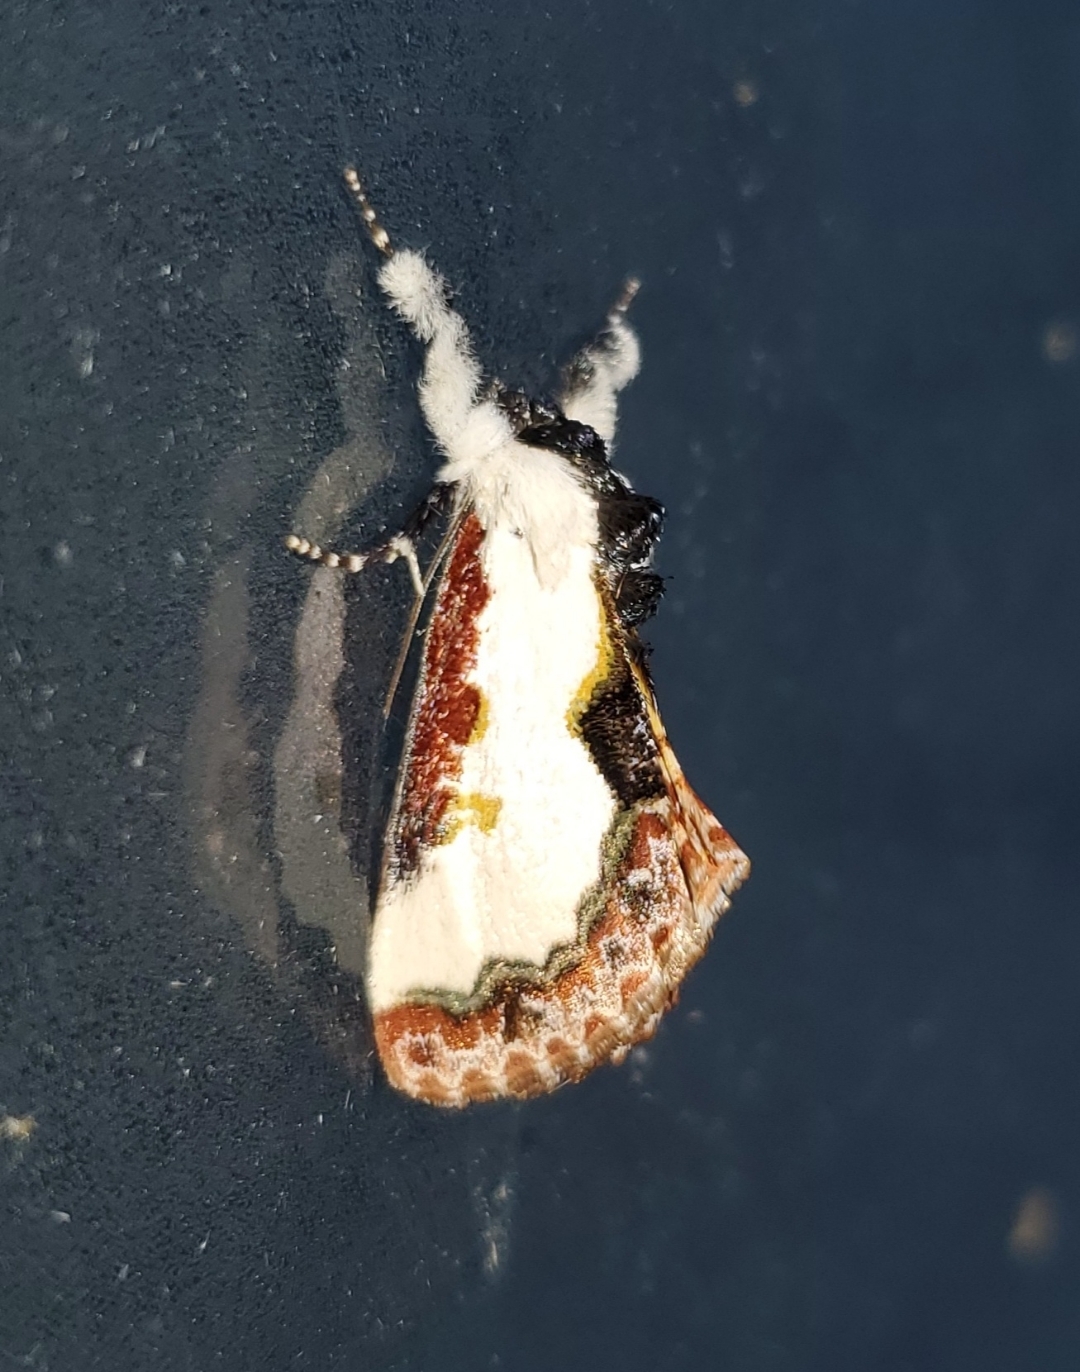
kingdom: Animalia
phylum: Arthropoda
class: Insecta
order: Lepidoptera
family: Noctuidae
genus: Eudryas
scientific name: Eudryas unio
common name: Pearly wood-nymph
